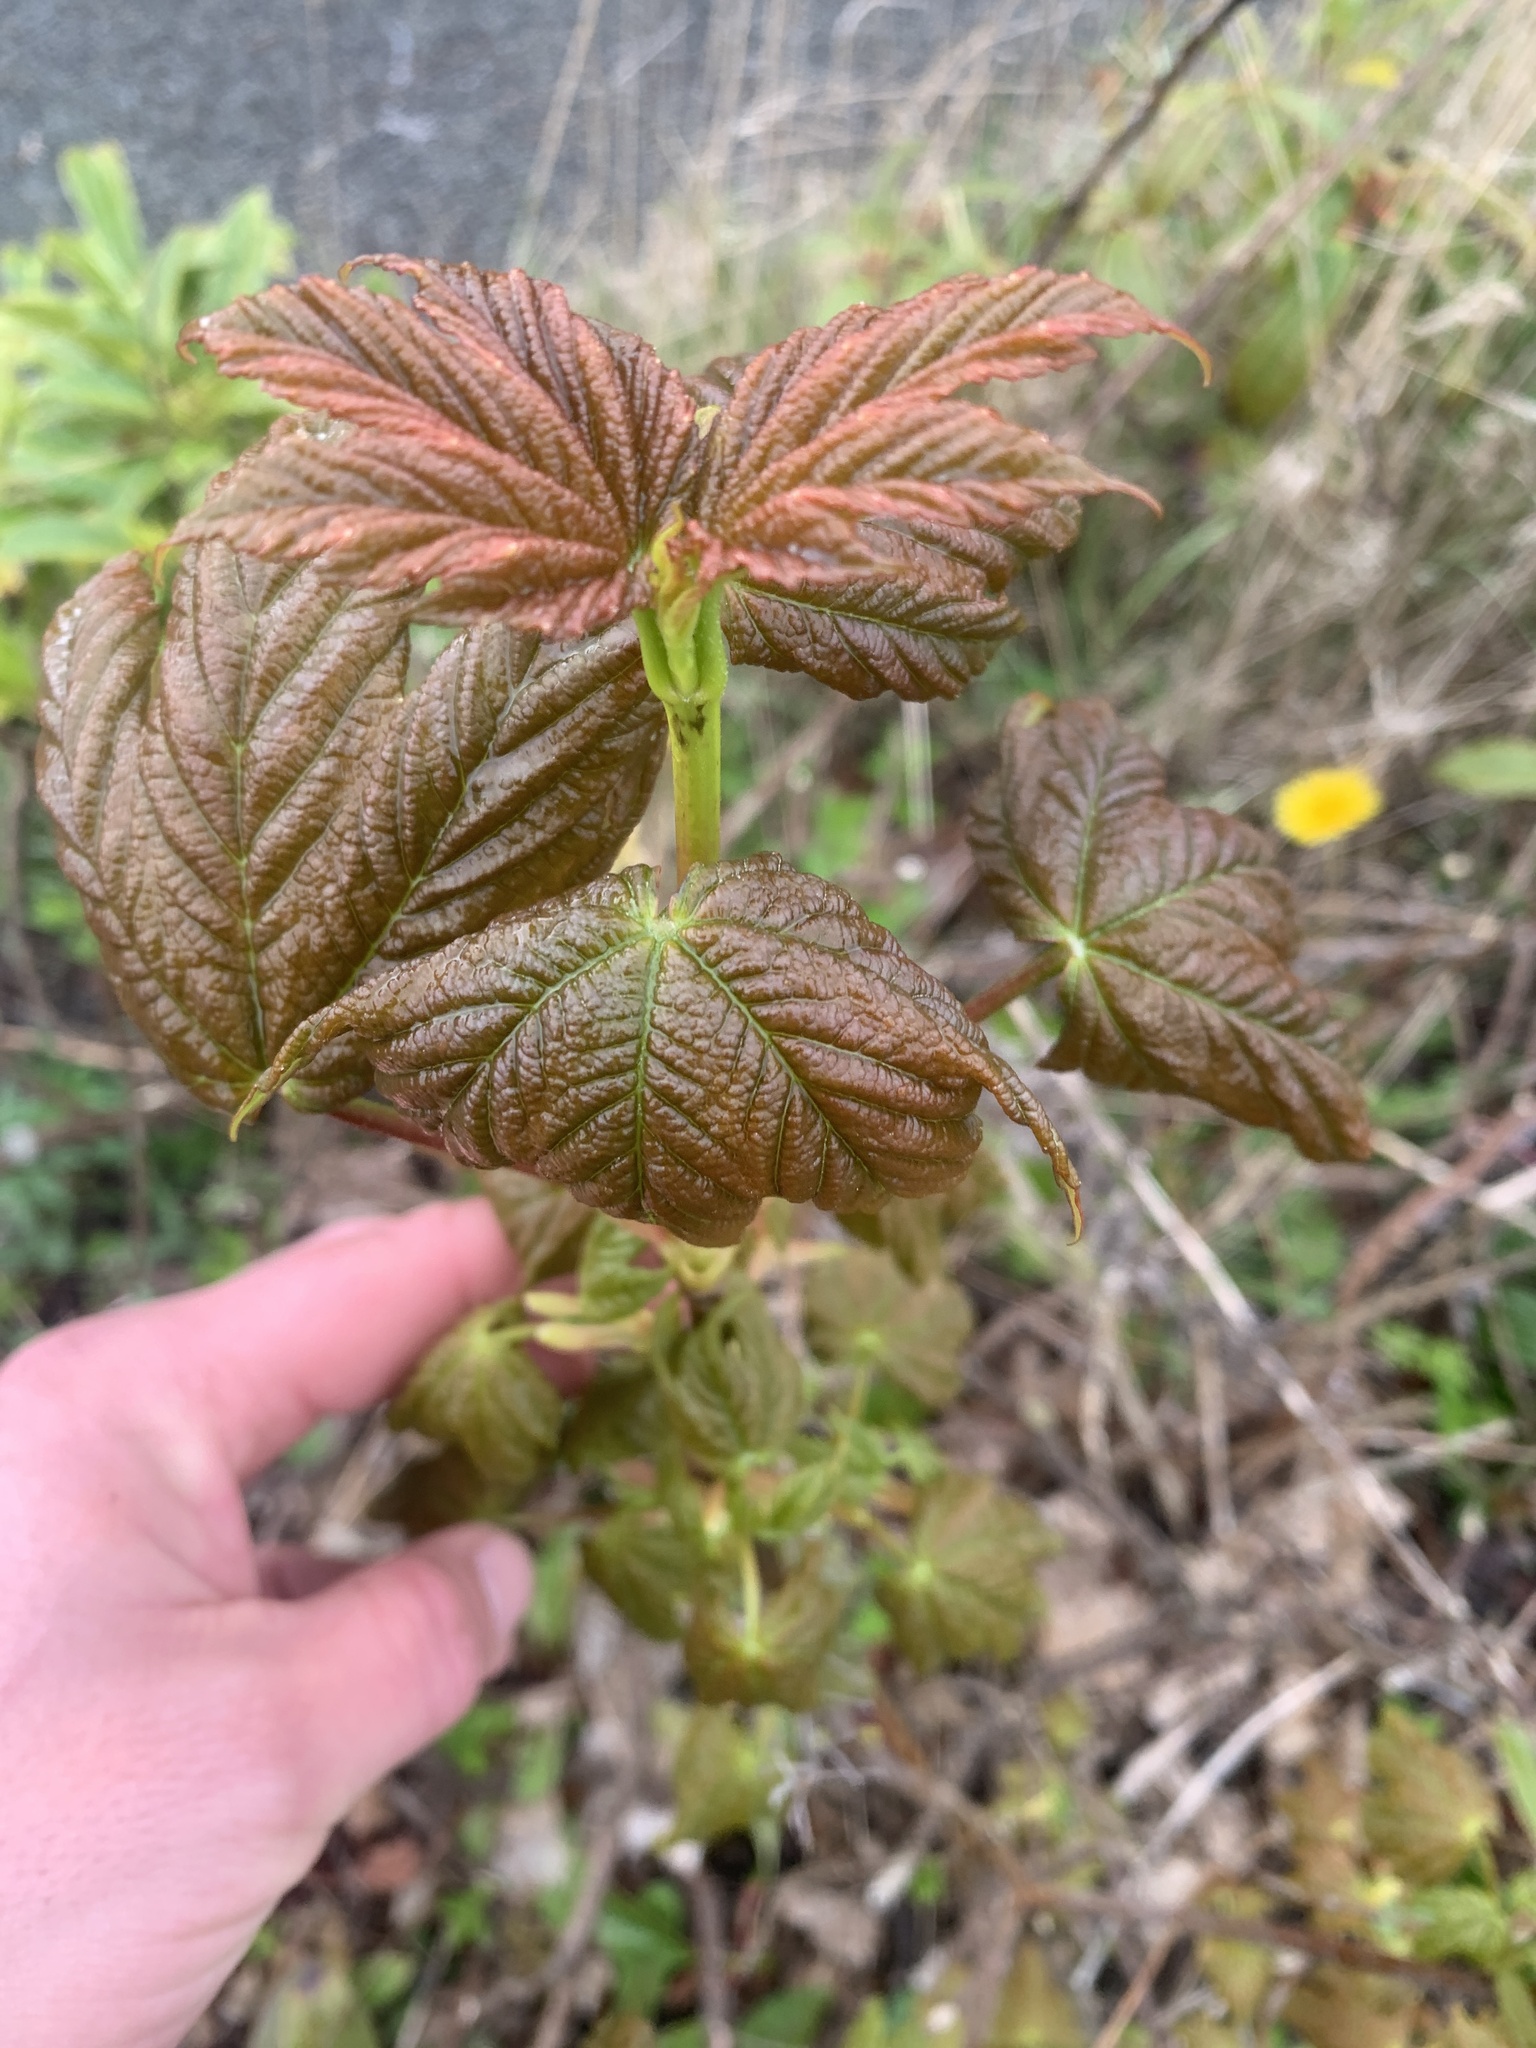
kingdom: Plantae
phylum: Tracheophyta
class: Magnoliopsida
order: Sapindales
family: Sapindaceae
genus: Acer
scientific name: Acer pseudoplatanus
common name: Sycamore
